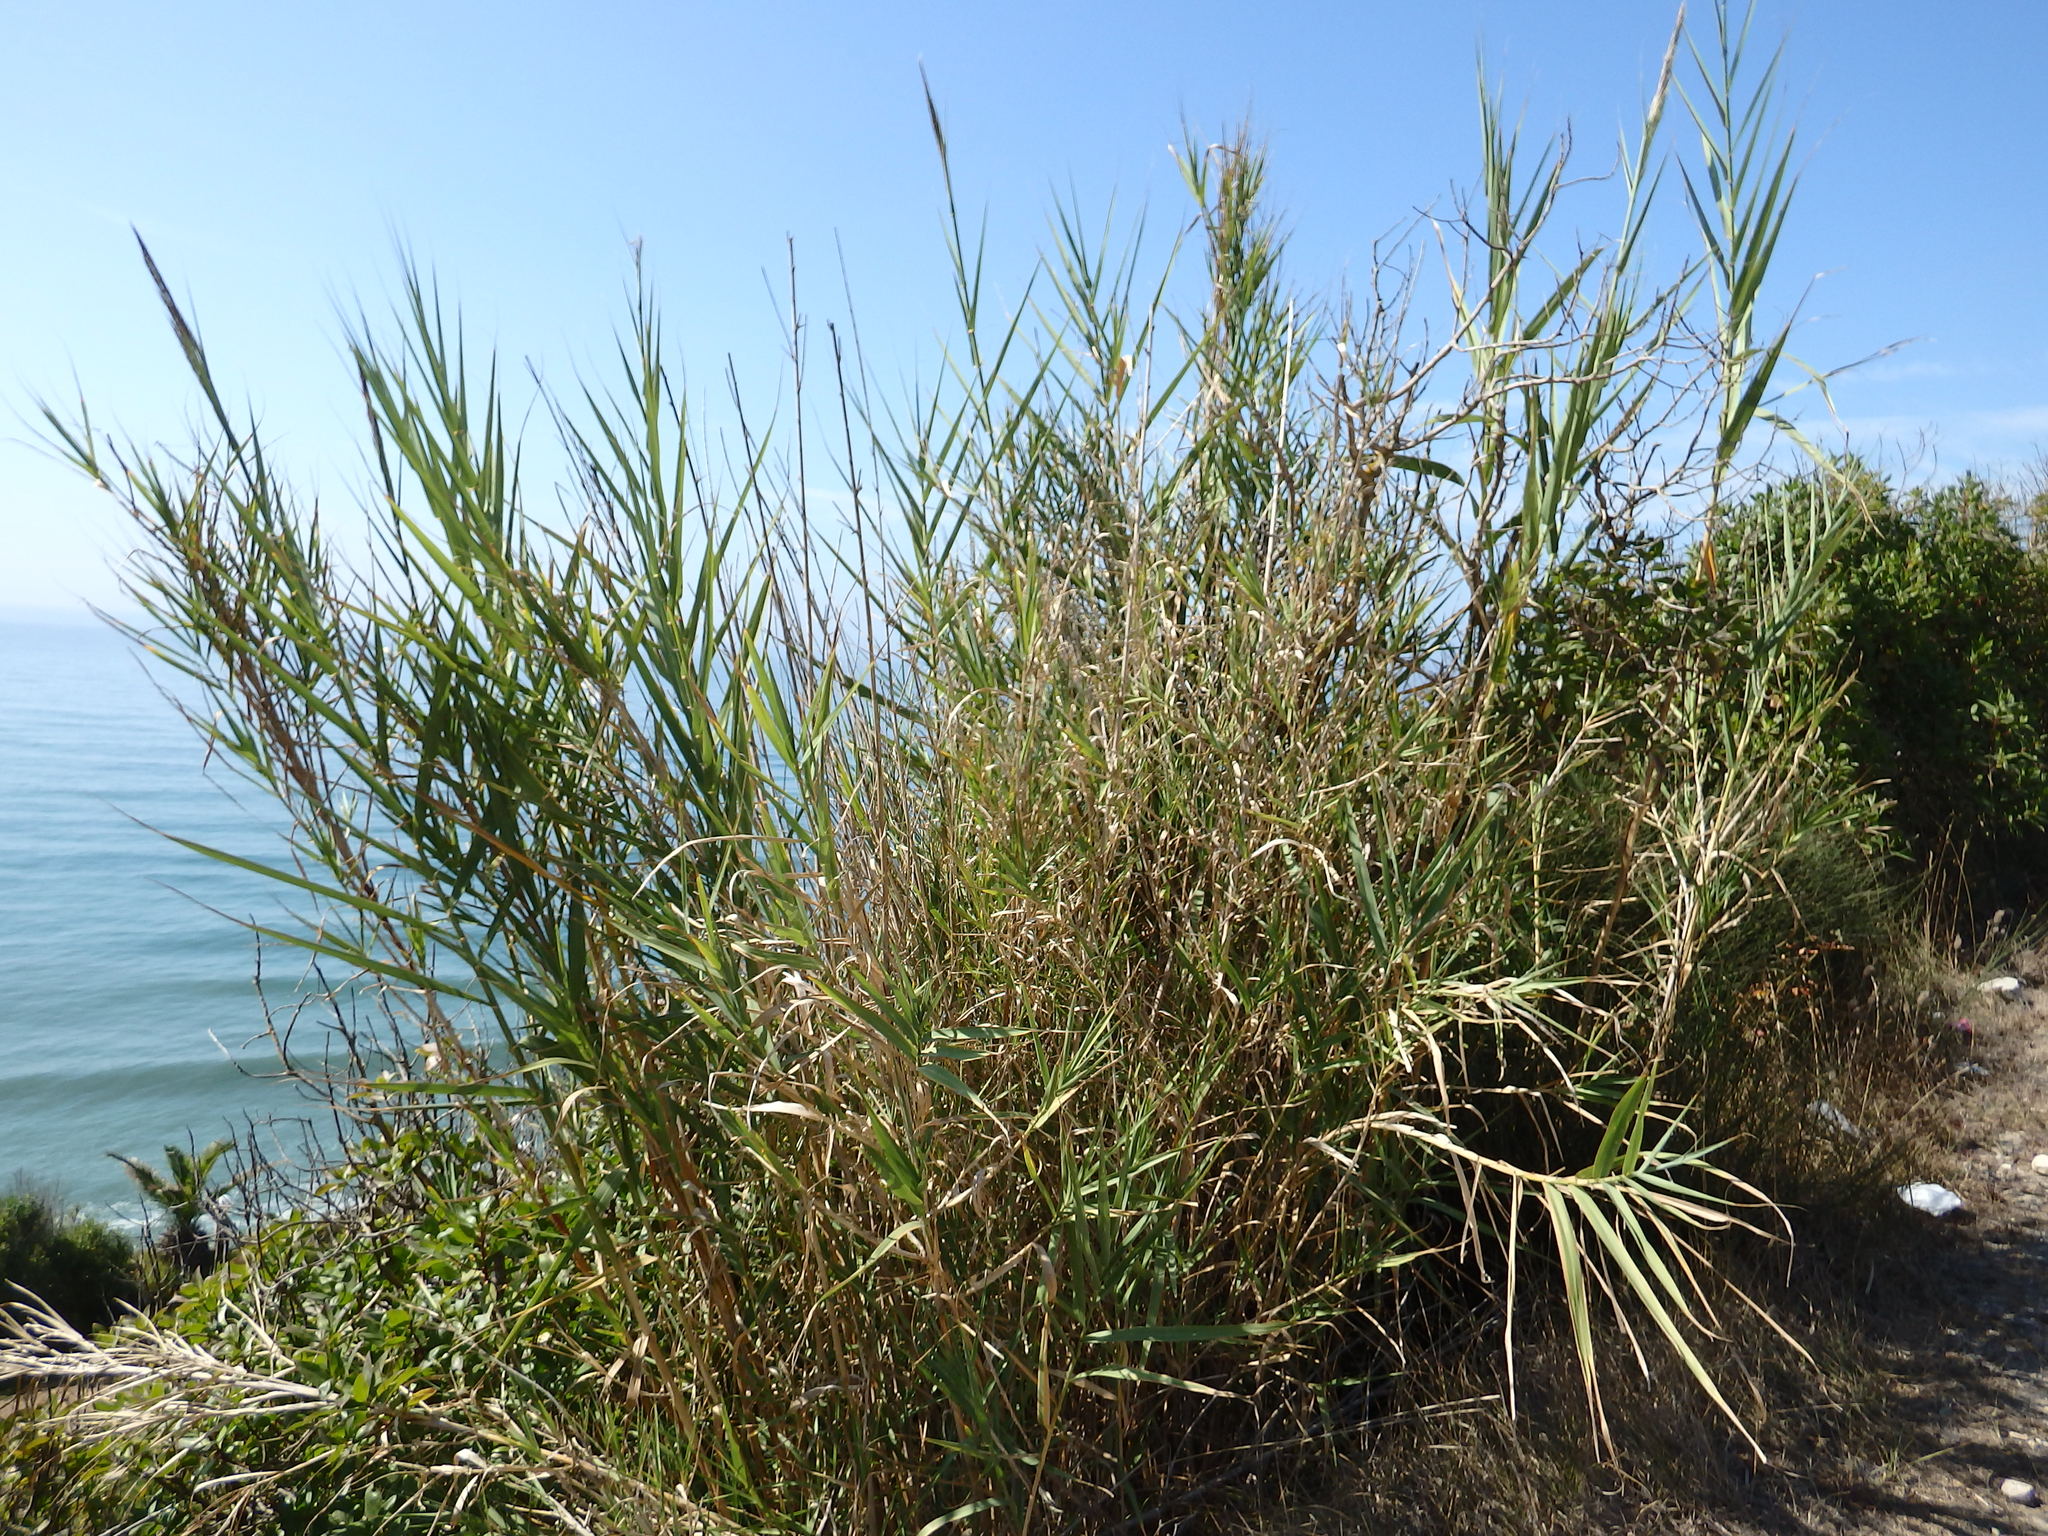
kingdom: Plantae
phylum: Tracheophyta
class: Liliopsida
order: Poales
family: Poaceae
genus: Arundo
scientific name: Arundo micrantha
